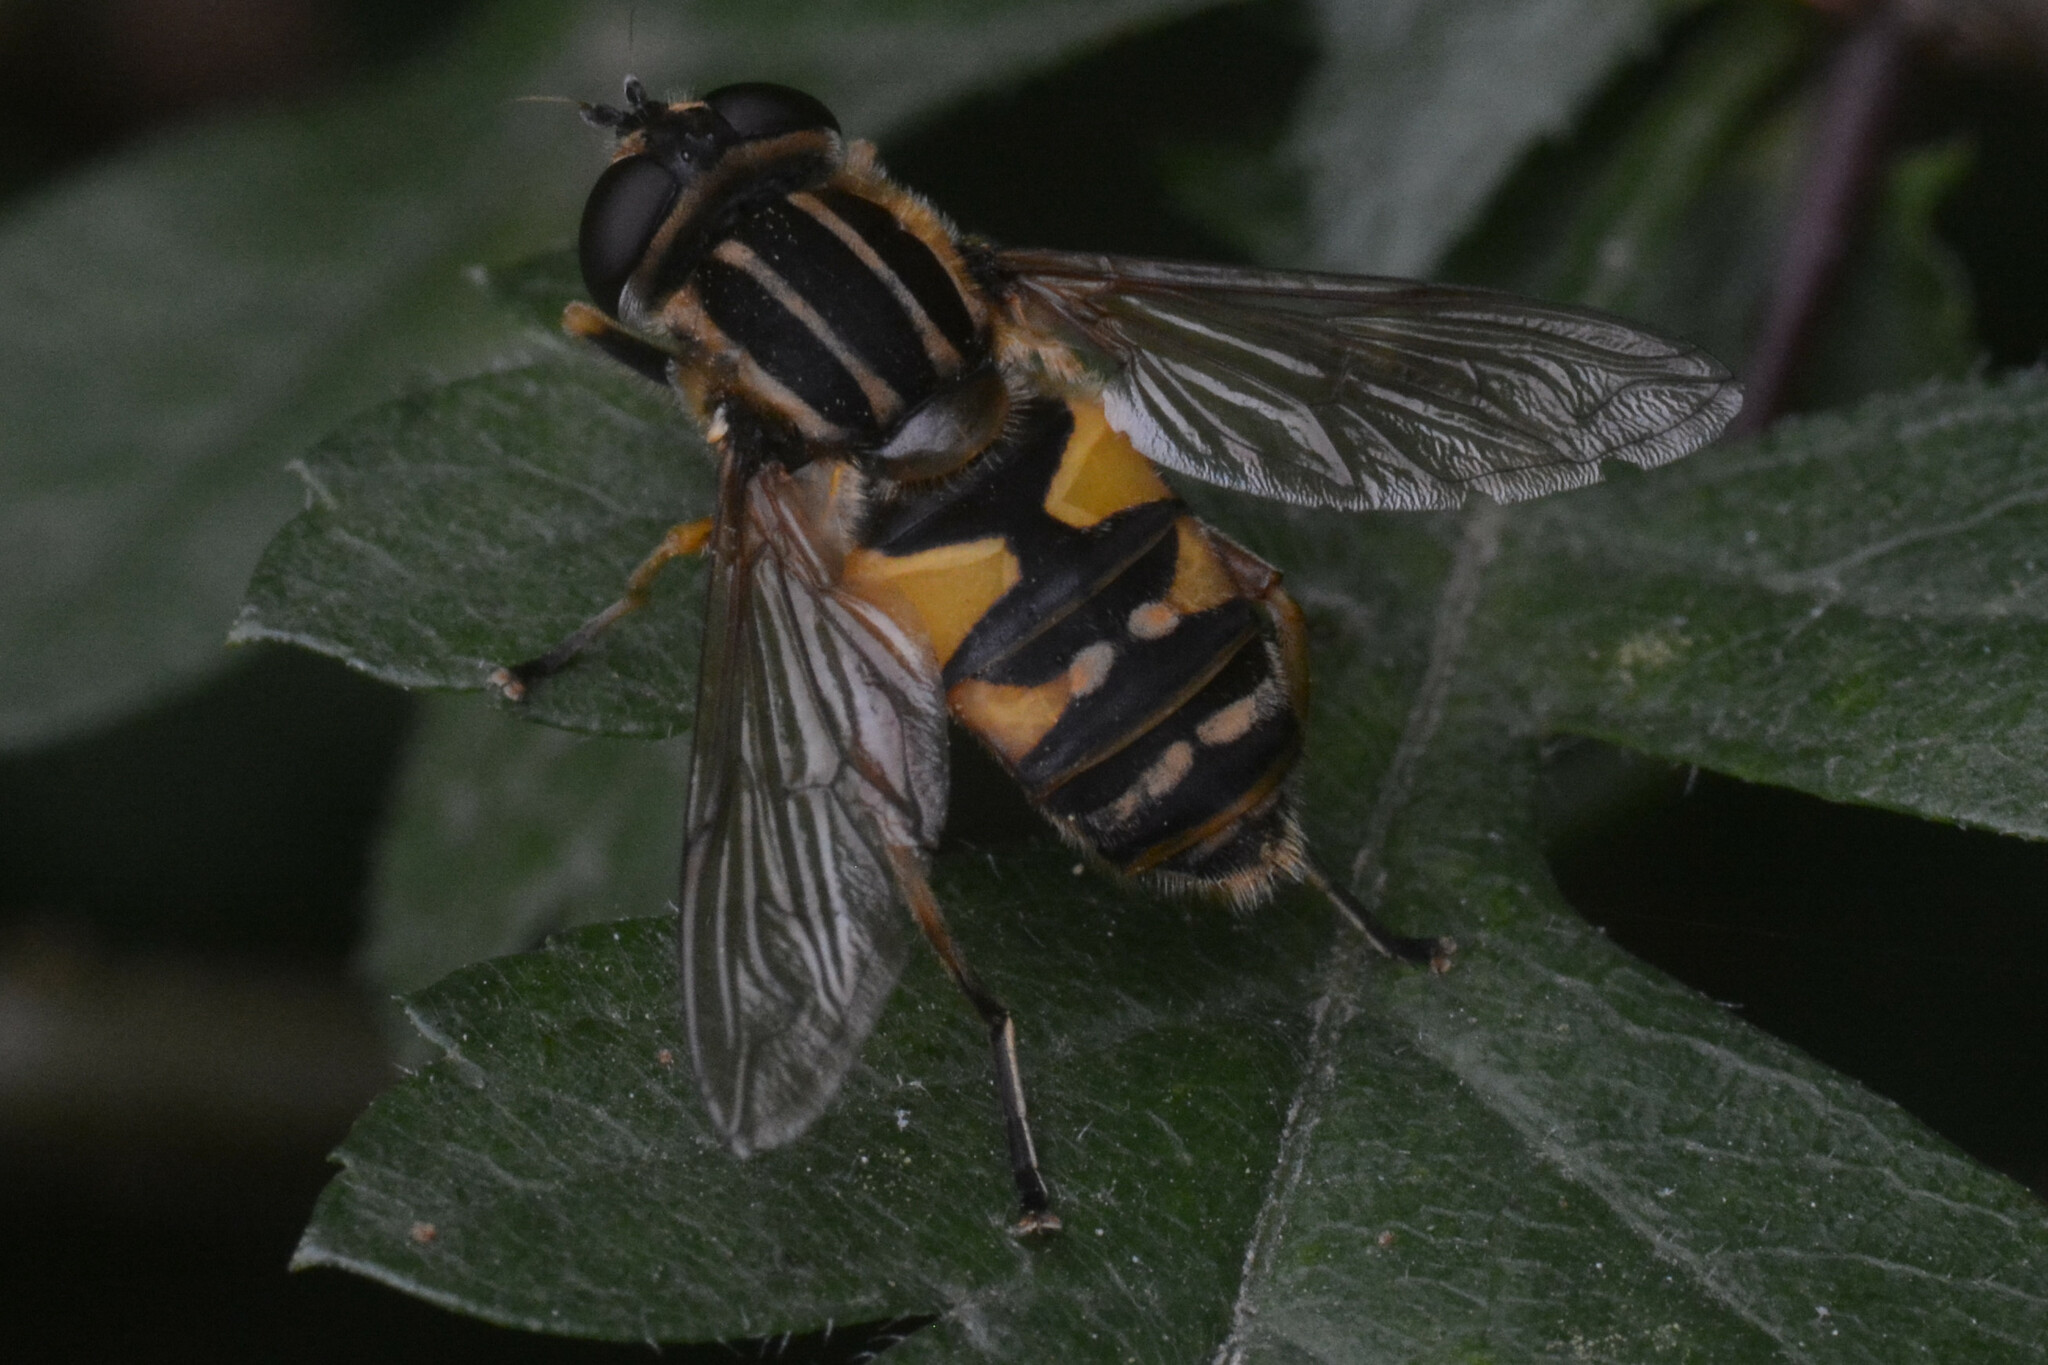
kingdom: Animalia
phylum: Arthropoda
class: Insecta
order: Diptera
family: Syrphidae
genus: Helophilus
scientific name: Helophilus pendulus
